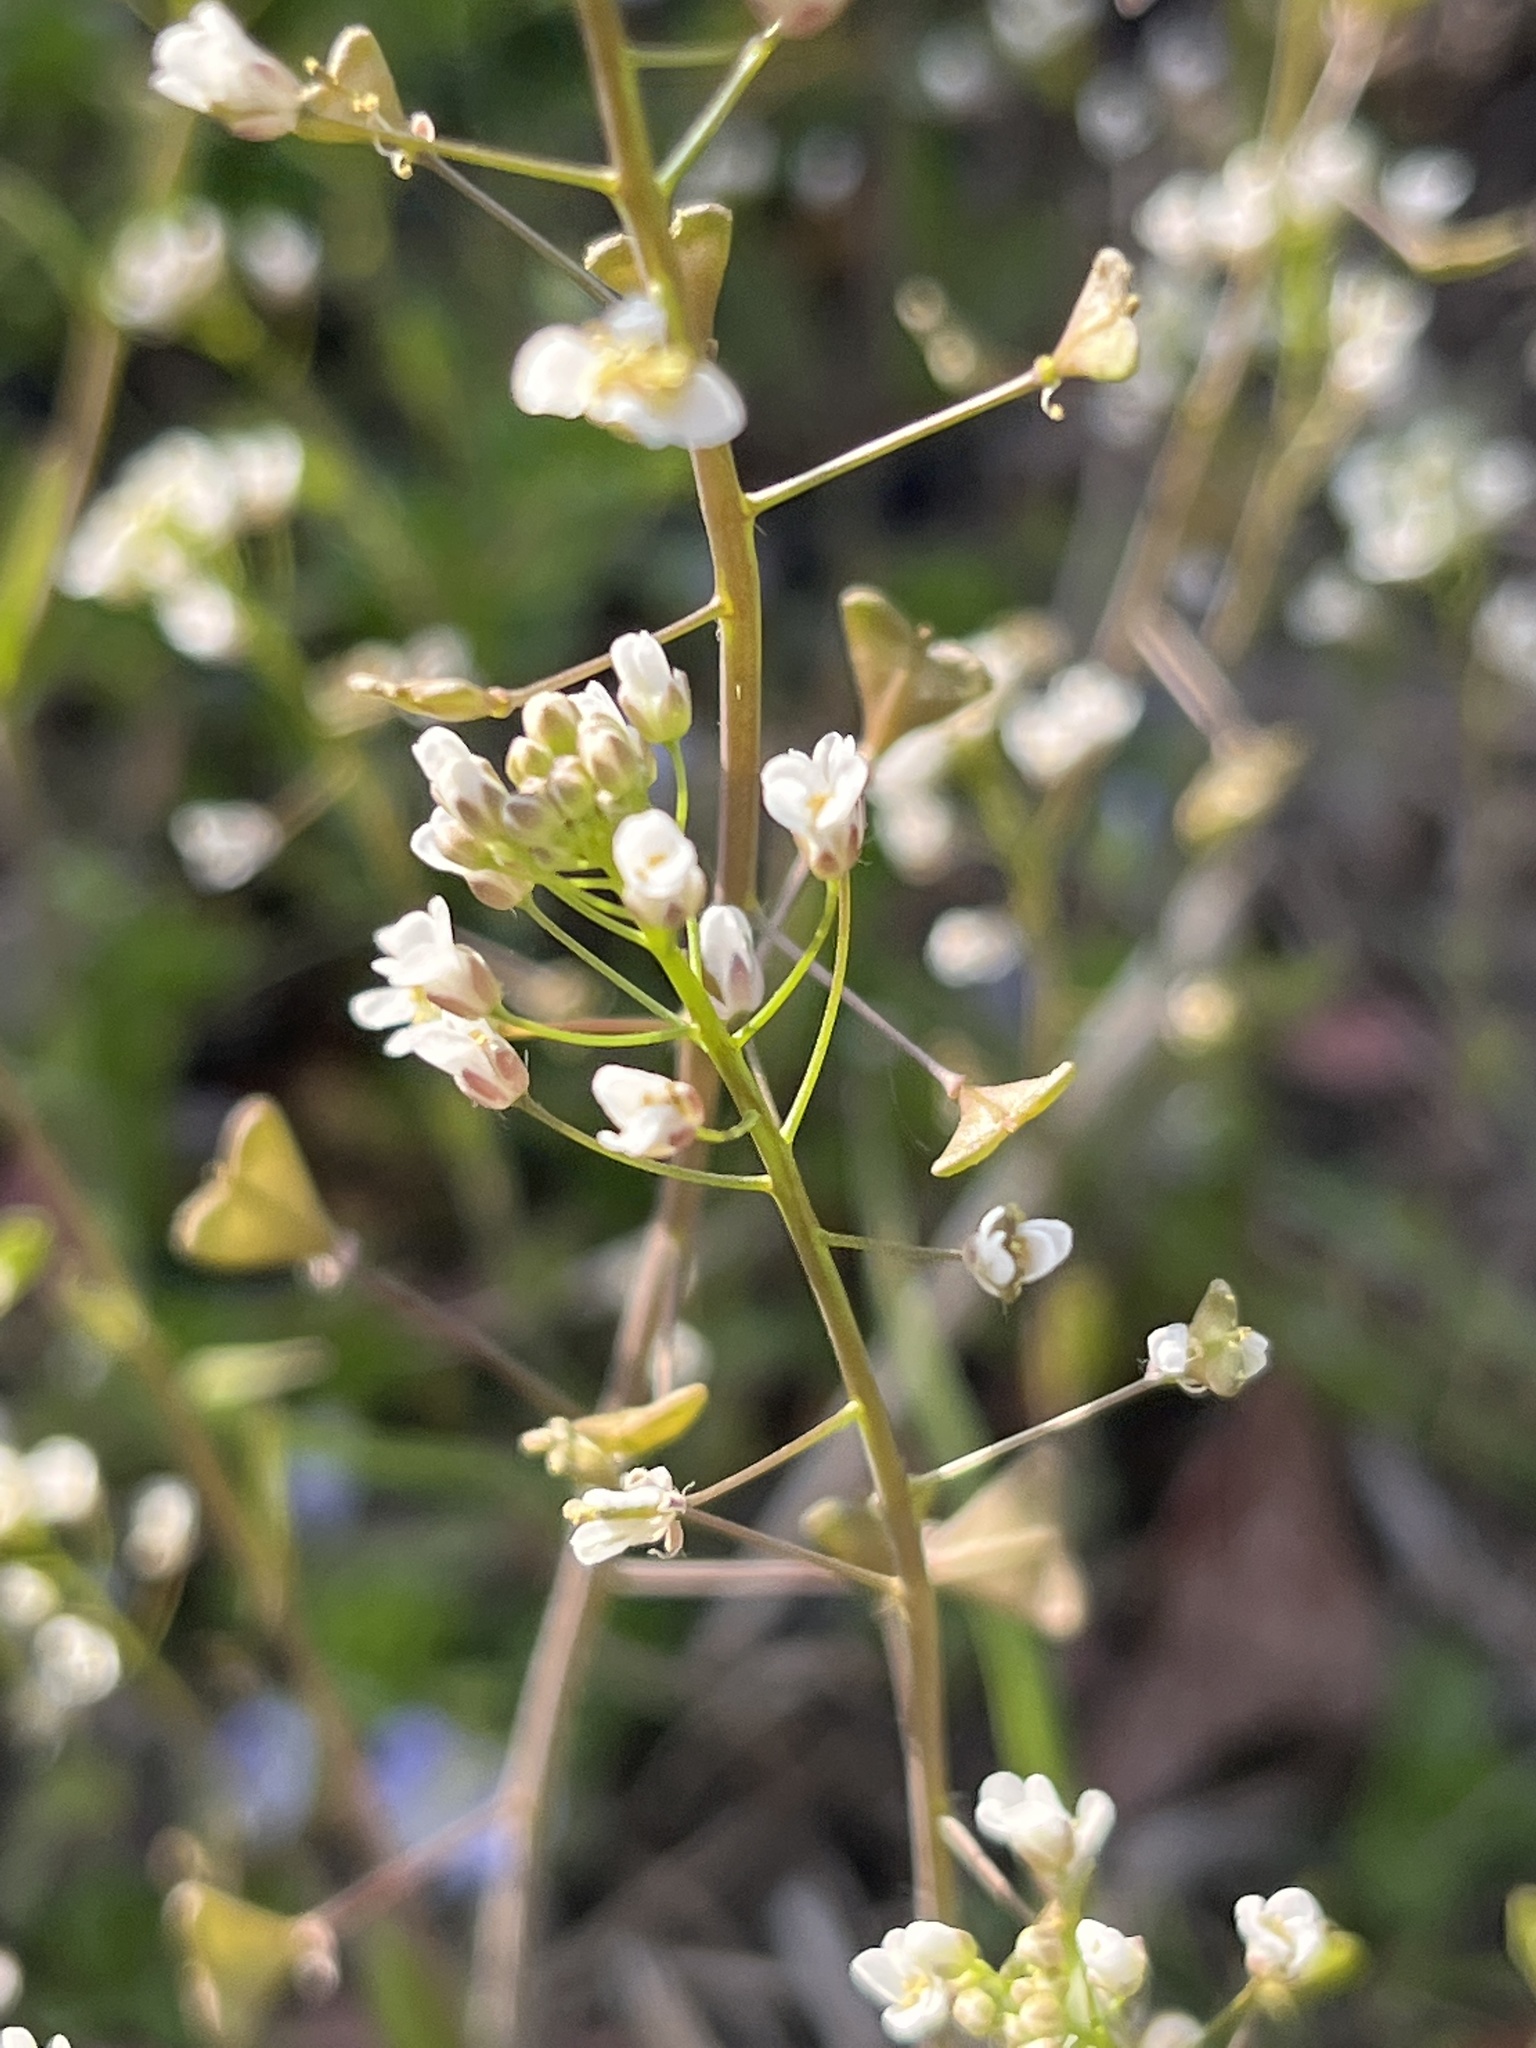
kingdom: Plantae
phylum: Tracheophyta
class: Magnoliopsida
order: Brassicales
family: Brassicaceae
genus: Capsella
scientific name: Capsella bursa-pastoris
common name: Shepherd's purse
